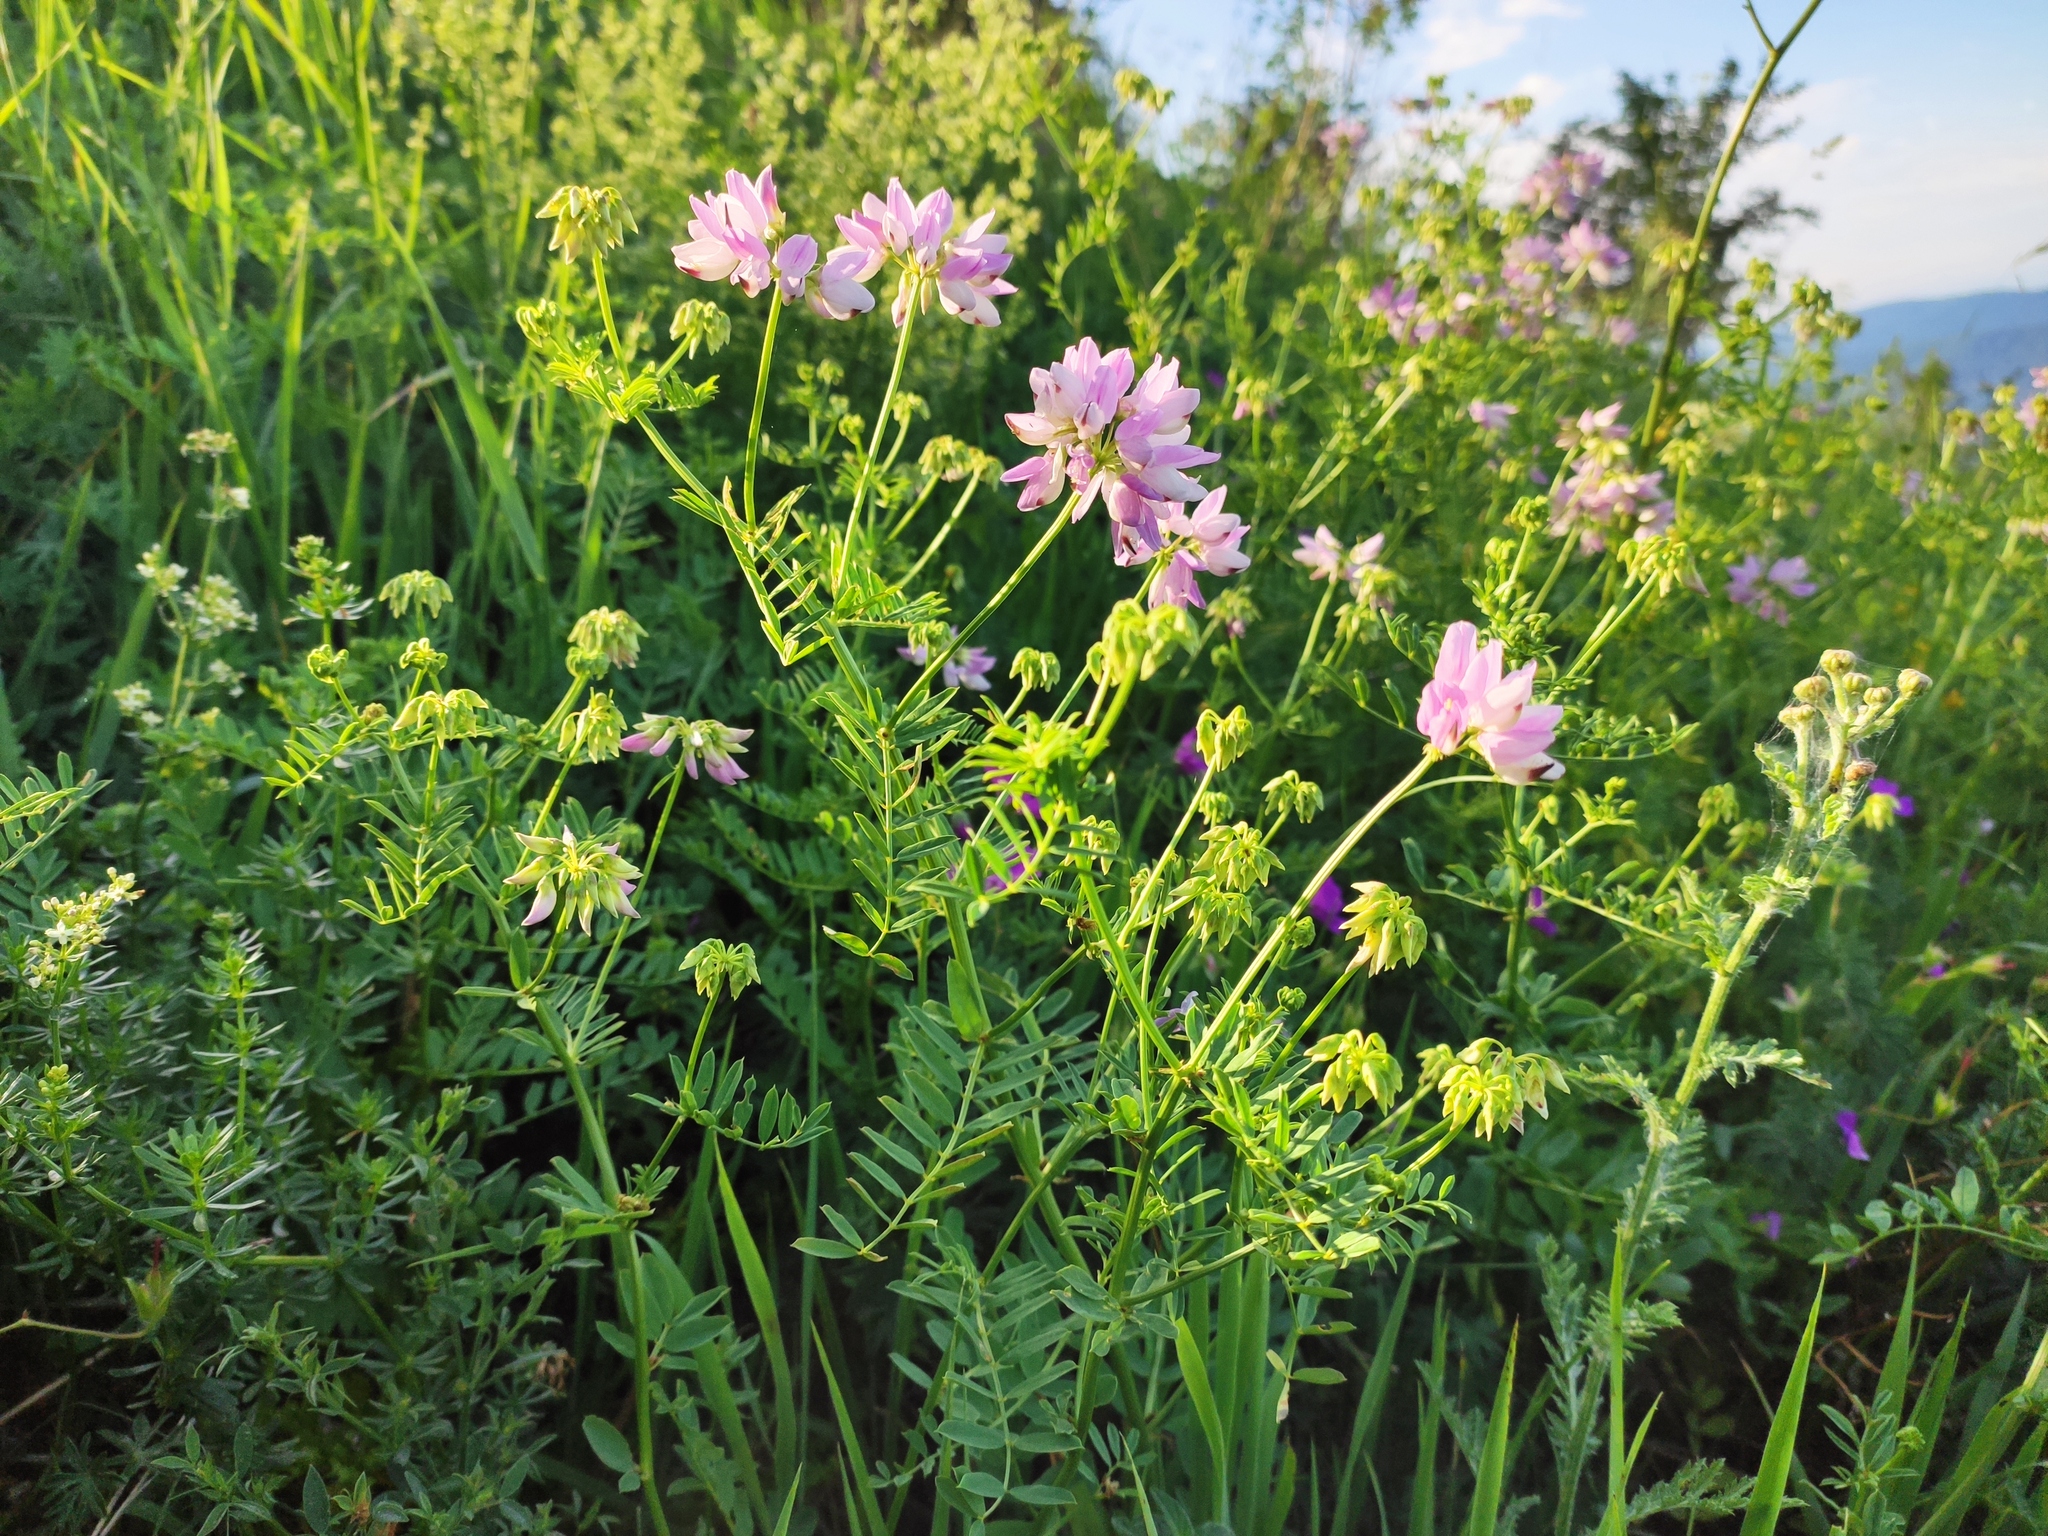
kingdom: Plantae
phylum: Tracheophyta
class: Magnoliopsida
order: Fabales
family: Fabaceae
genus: Coronilla
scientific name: Coronilla varia
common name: Crownvetch
